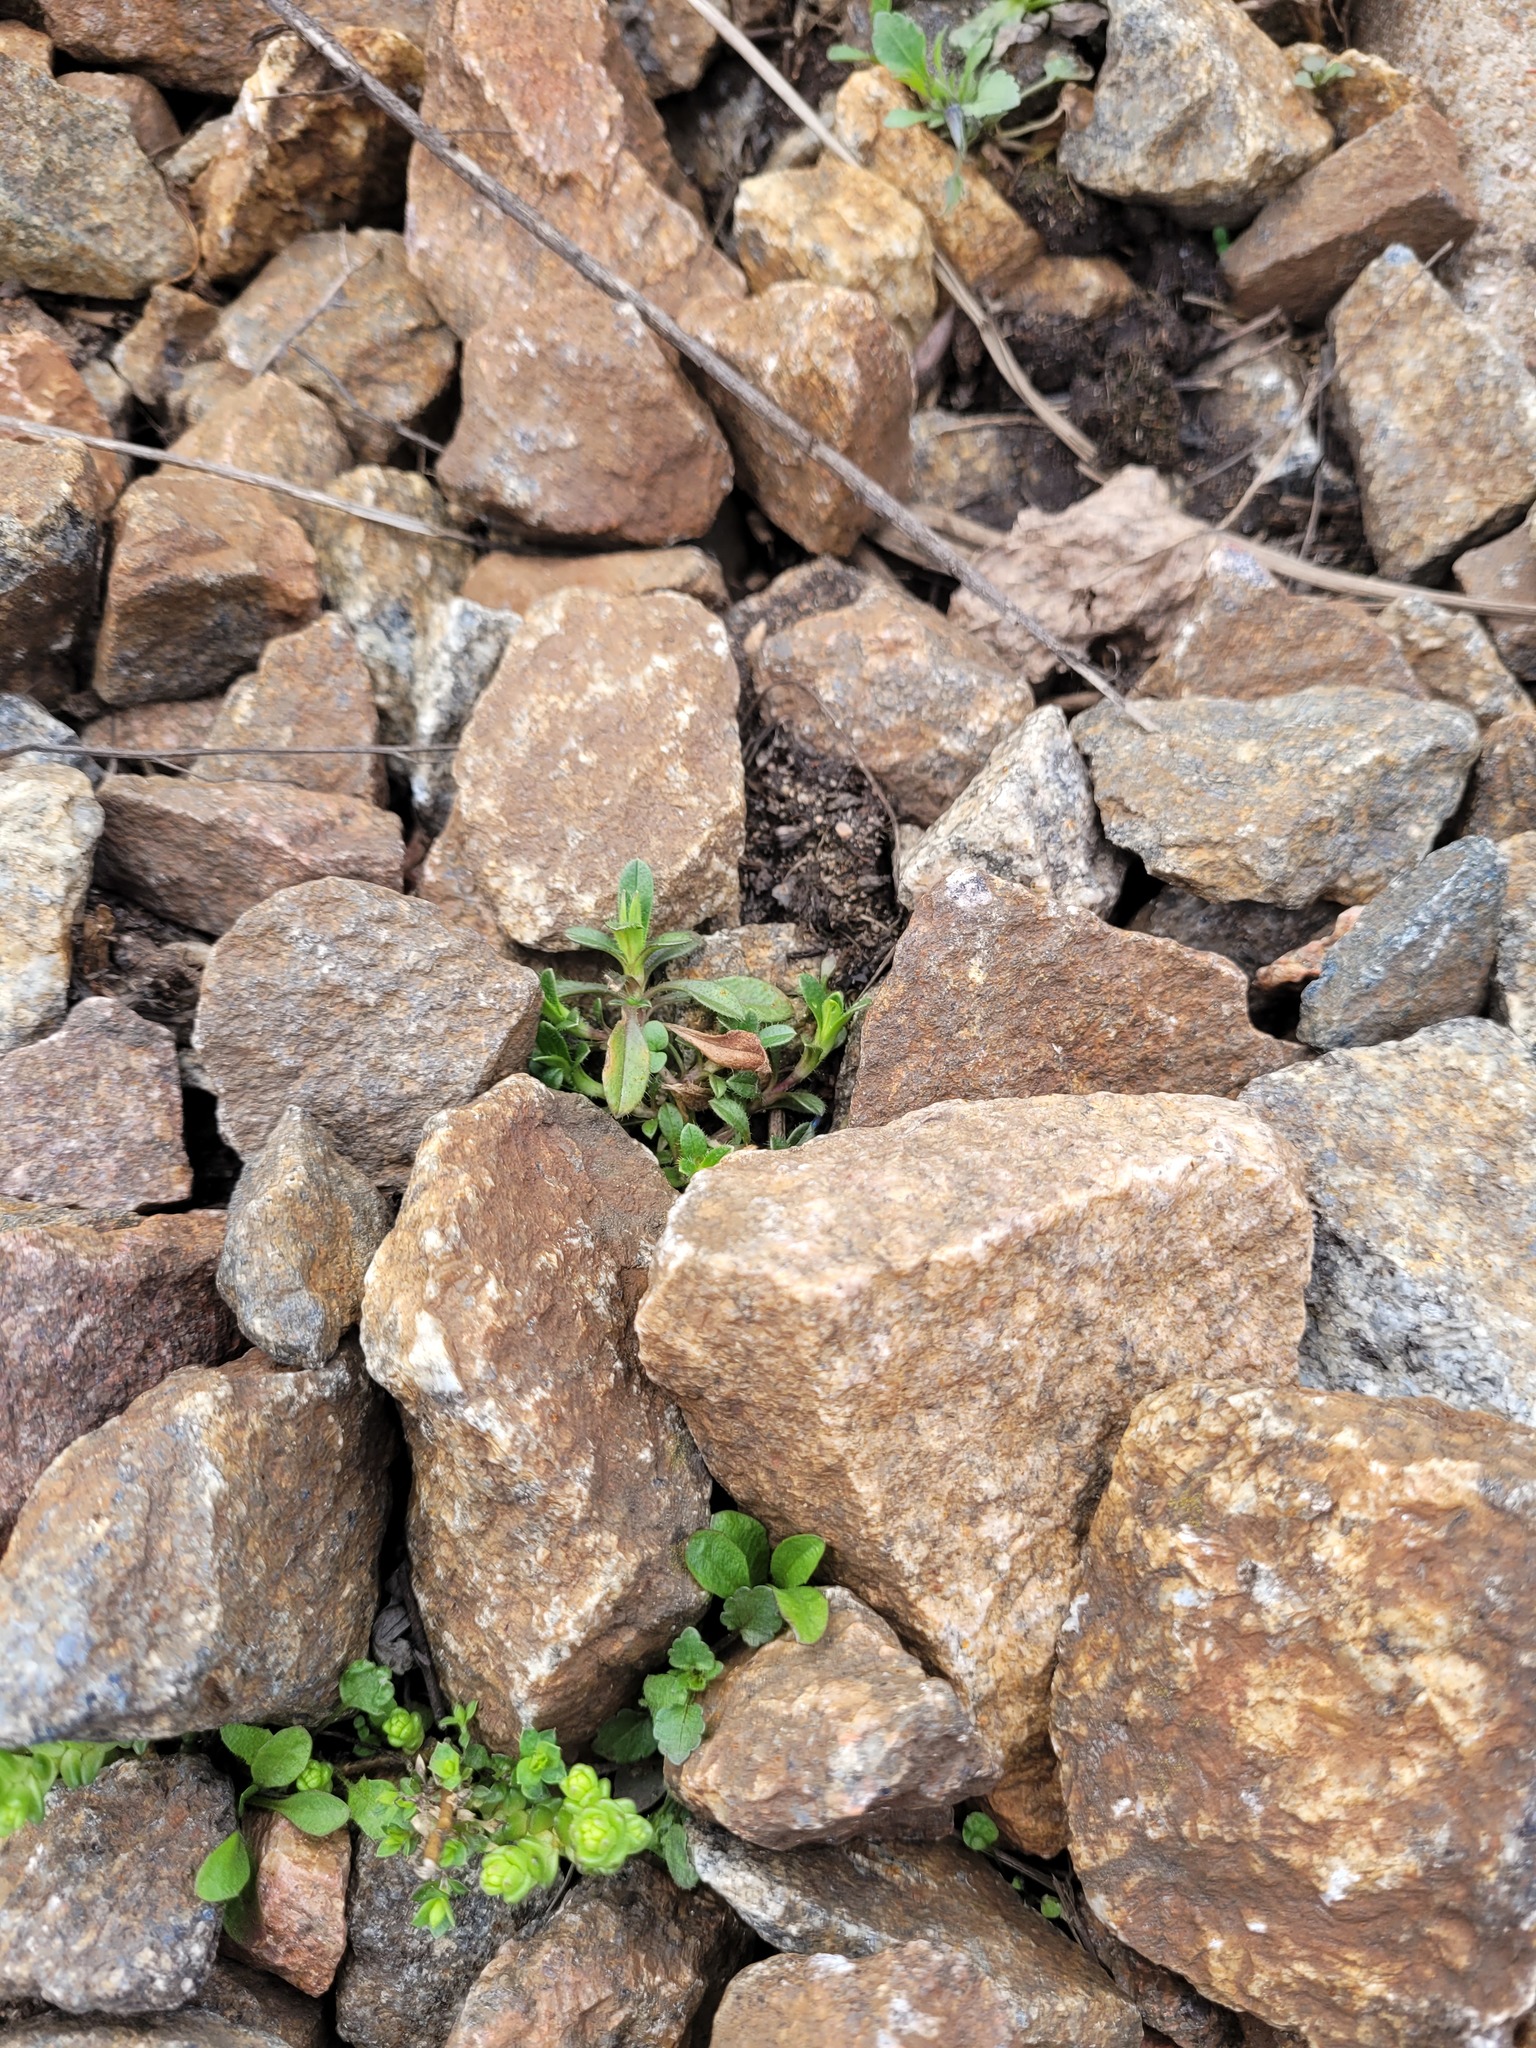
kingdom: Plantae
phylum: Tracheophyta
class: Magnoliopsida
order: Caryophyllales
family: Caryophyllaceae
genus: Cerastium
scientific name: Cerastium holosteoides
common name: Big chickweed
